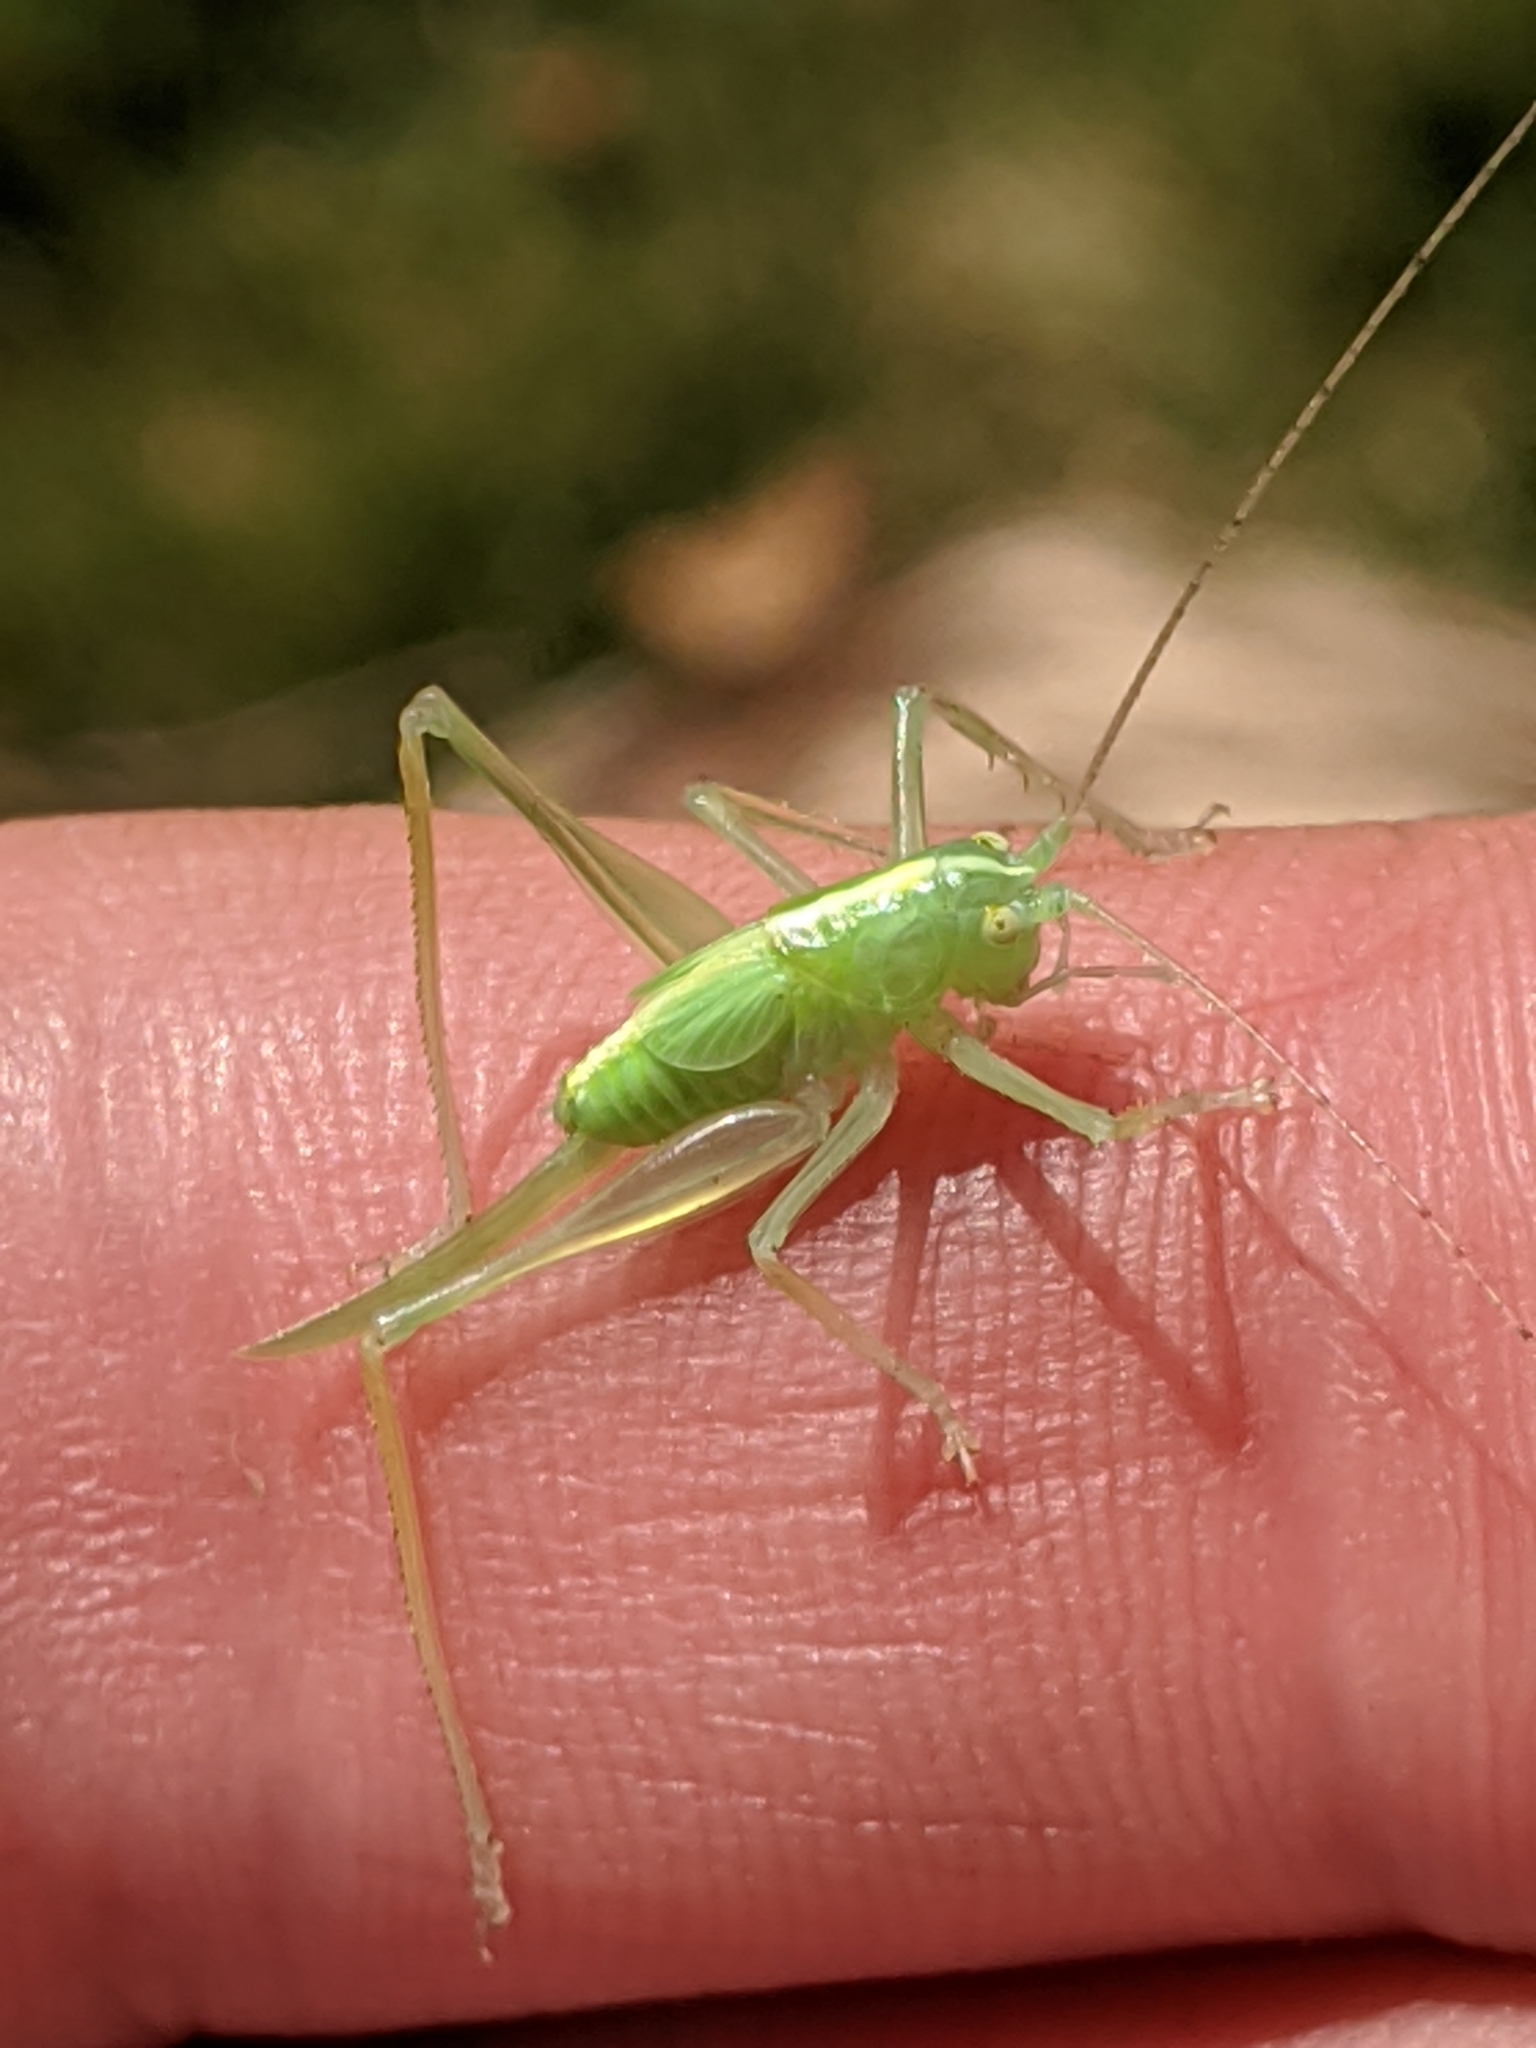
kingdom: Animalia
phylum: Arthropoda
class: Insecta
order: Orthoptera
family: Tettigoniidae
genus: Meconema
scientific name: Meconema thalassinum
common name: Oak bush-cricket
